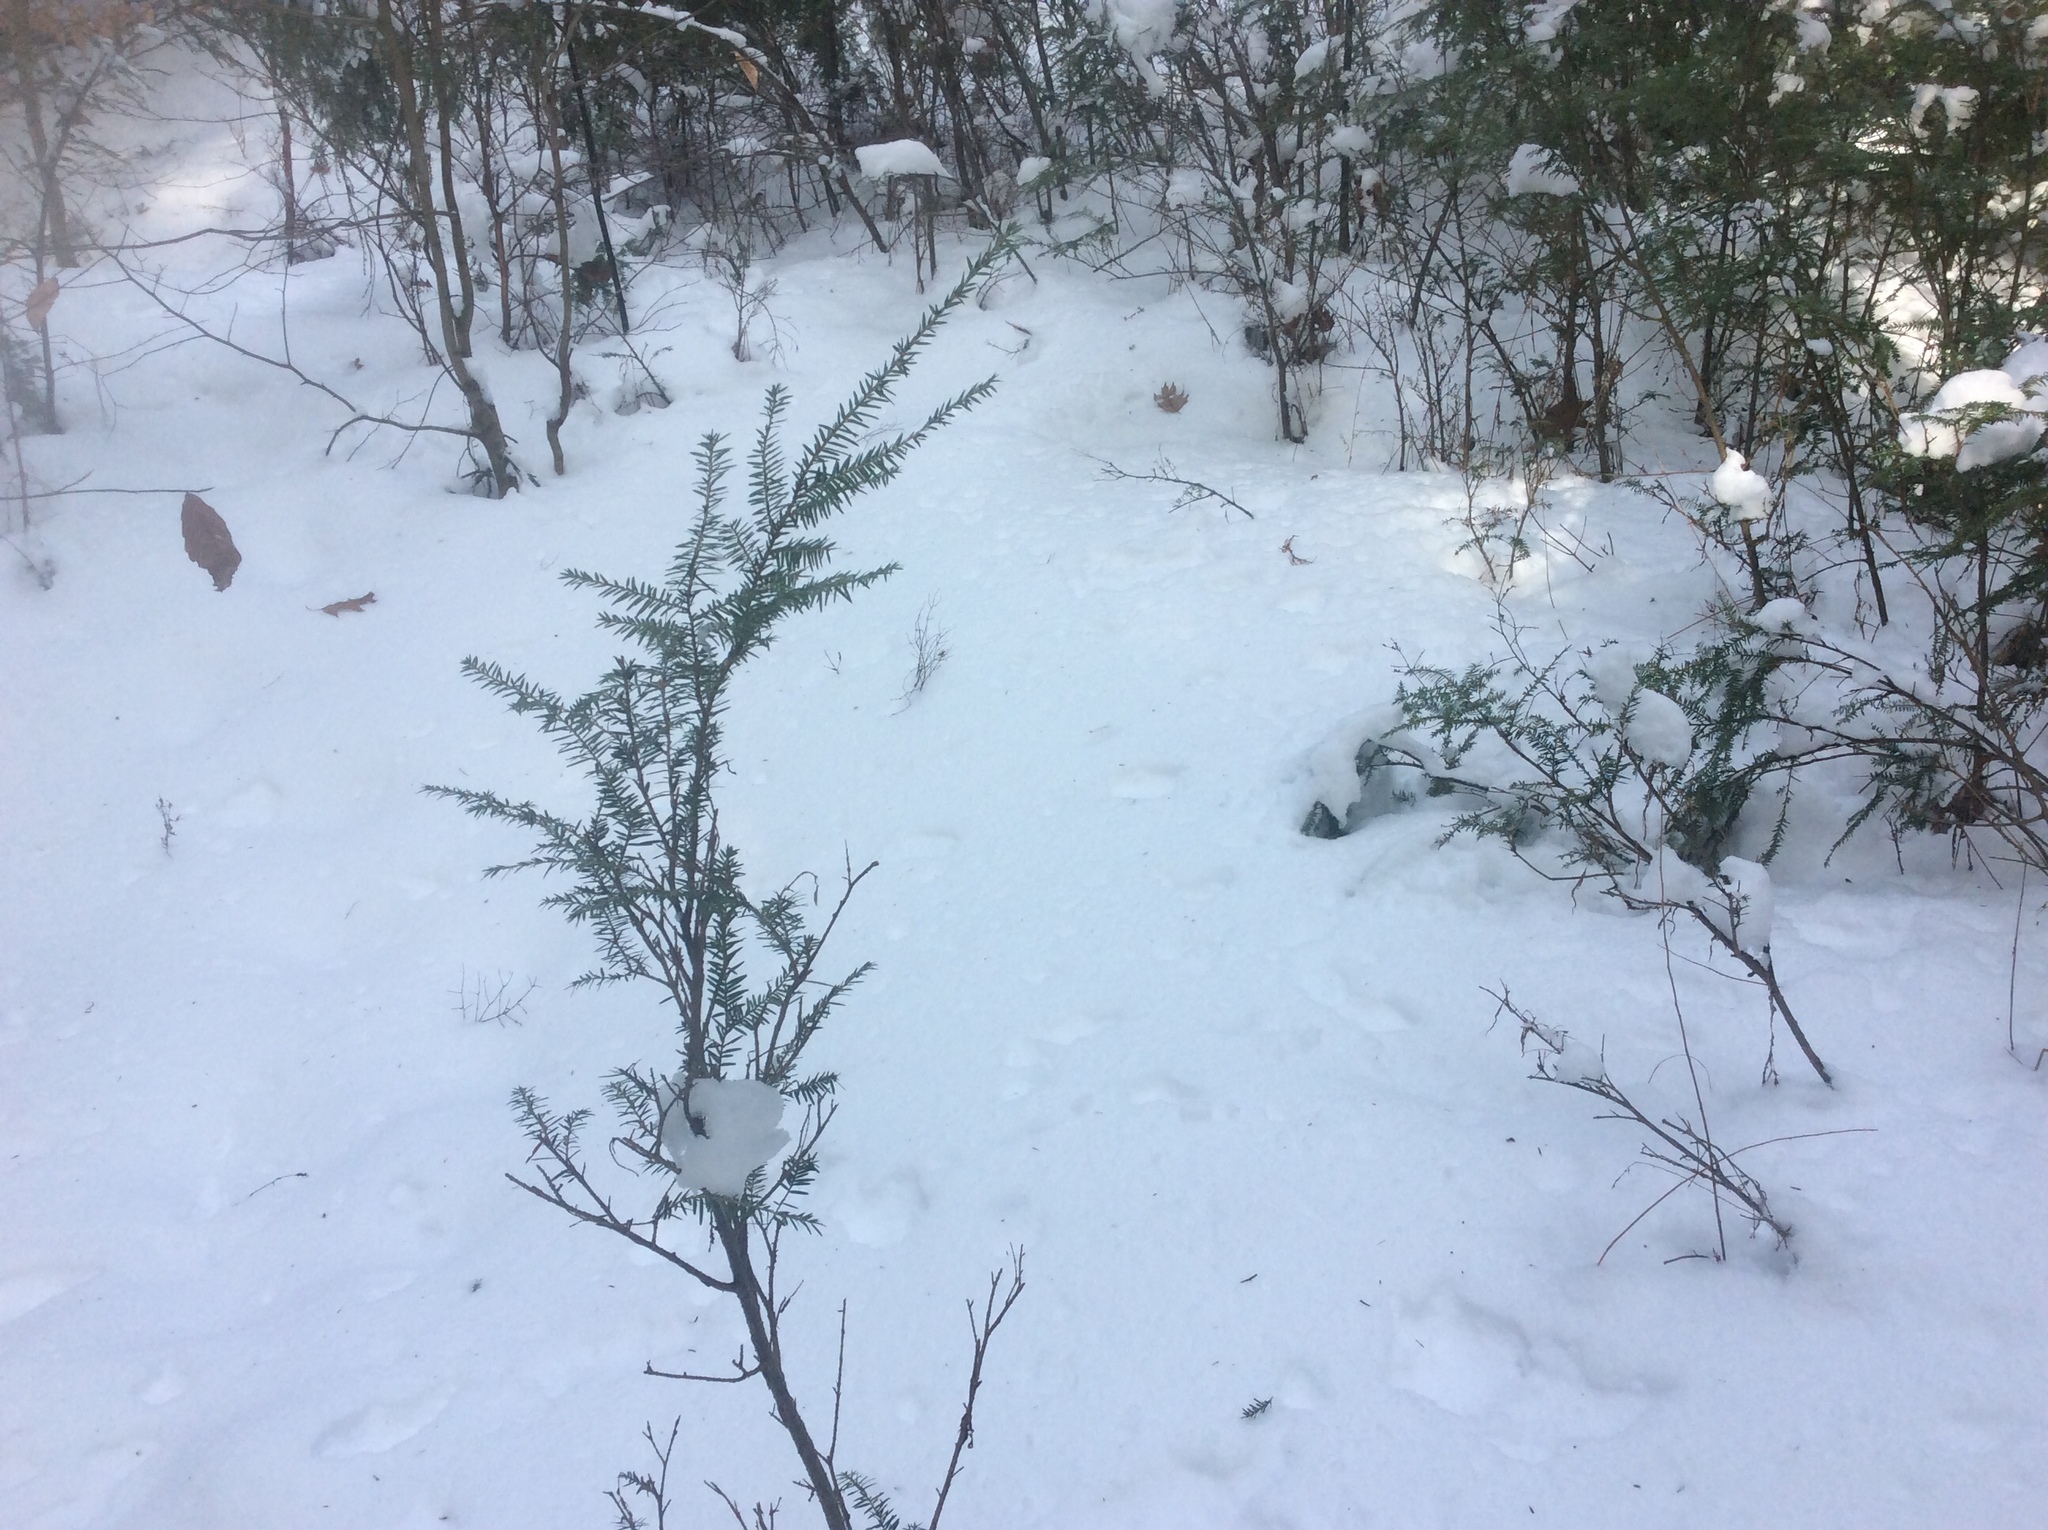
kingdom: Plantae
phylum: Tracheophyta
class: Pinopsida
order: Pinales
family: Pinaceae
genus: Tsuga
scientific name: Tsuga canadensis
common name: Eastern hemlock
